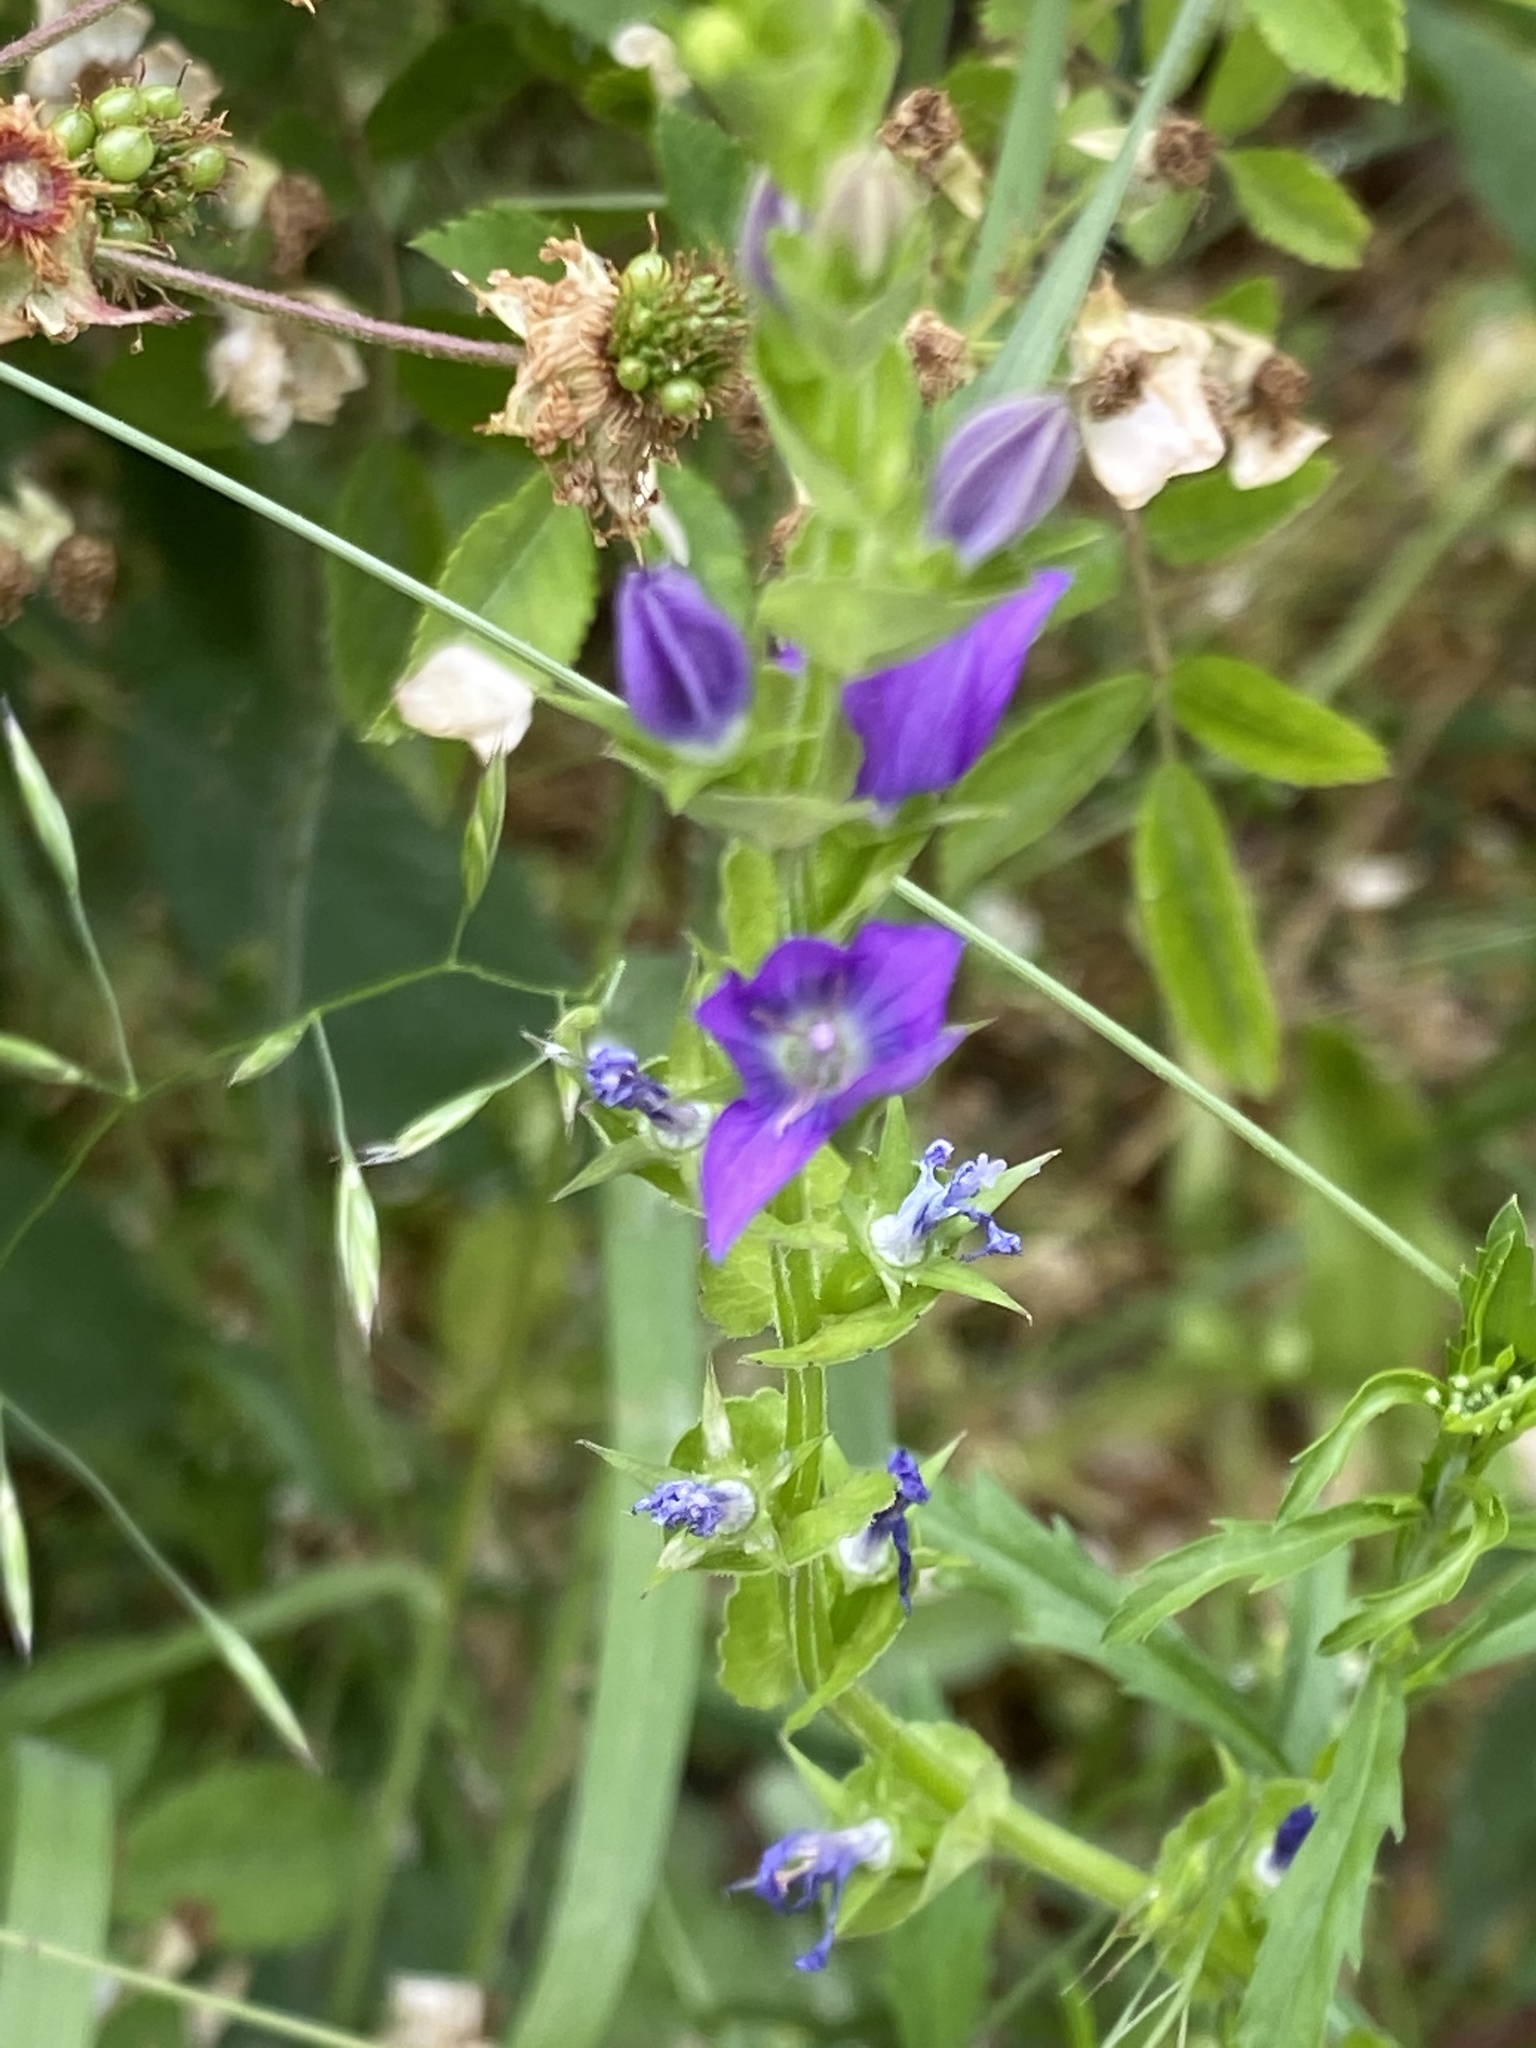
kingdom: Plantae
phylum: Tracheophyta
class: Magnoliopsida
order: Asterales
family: Campanulaceae
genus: Triodanis
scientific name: Triodanis perfoliata
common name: Clasping venus' looking-glass
